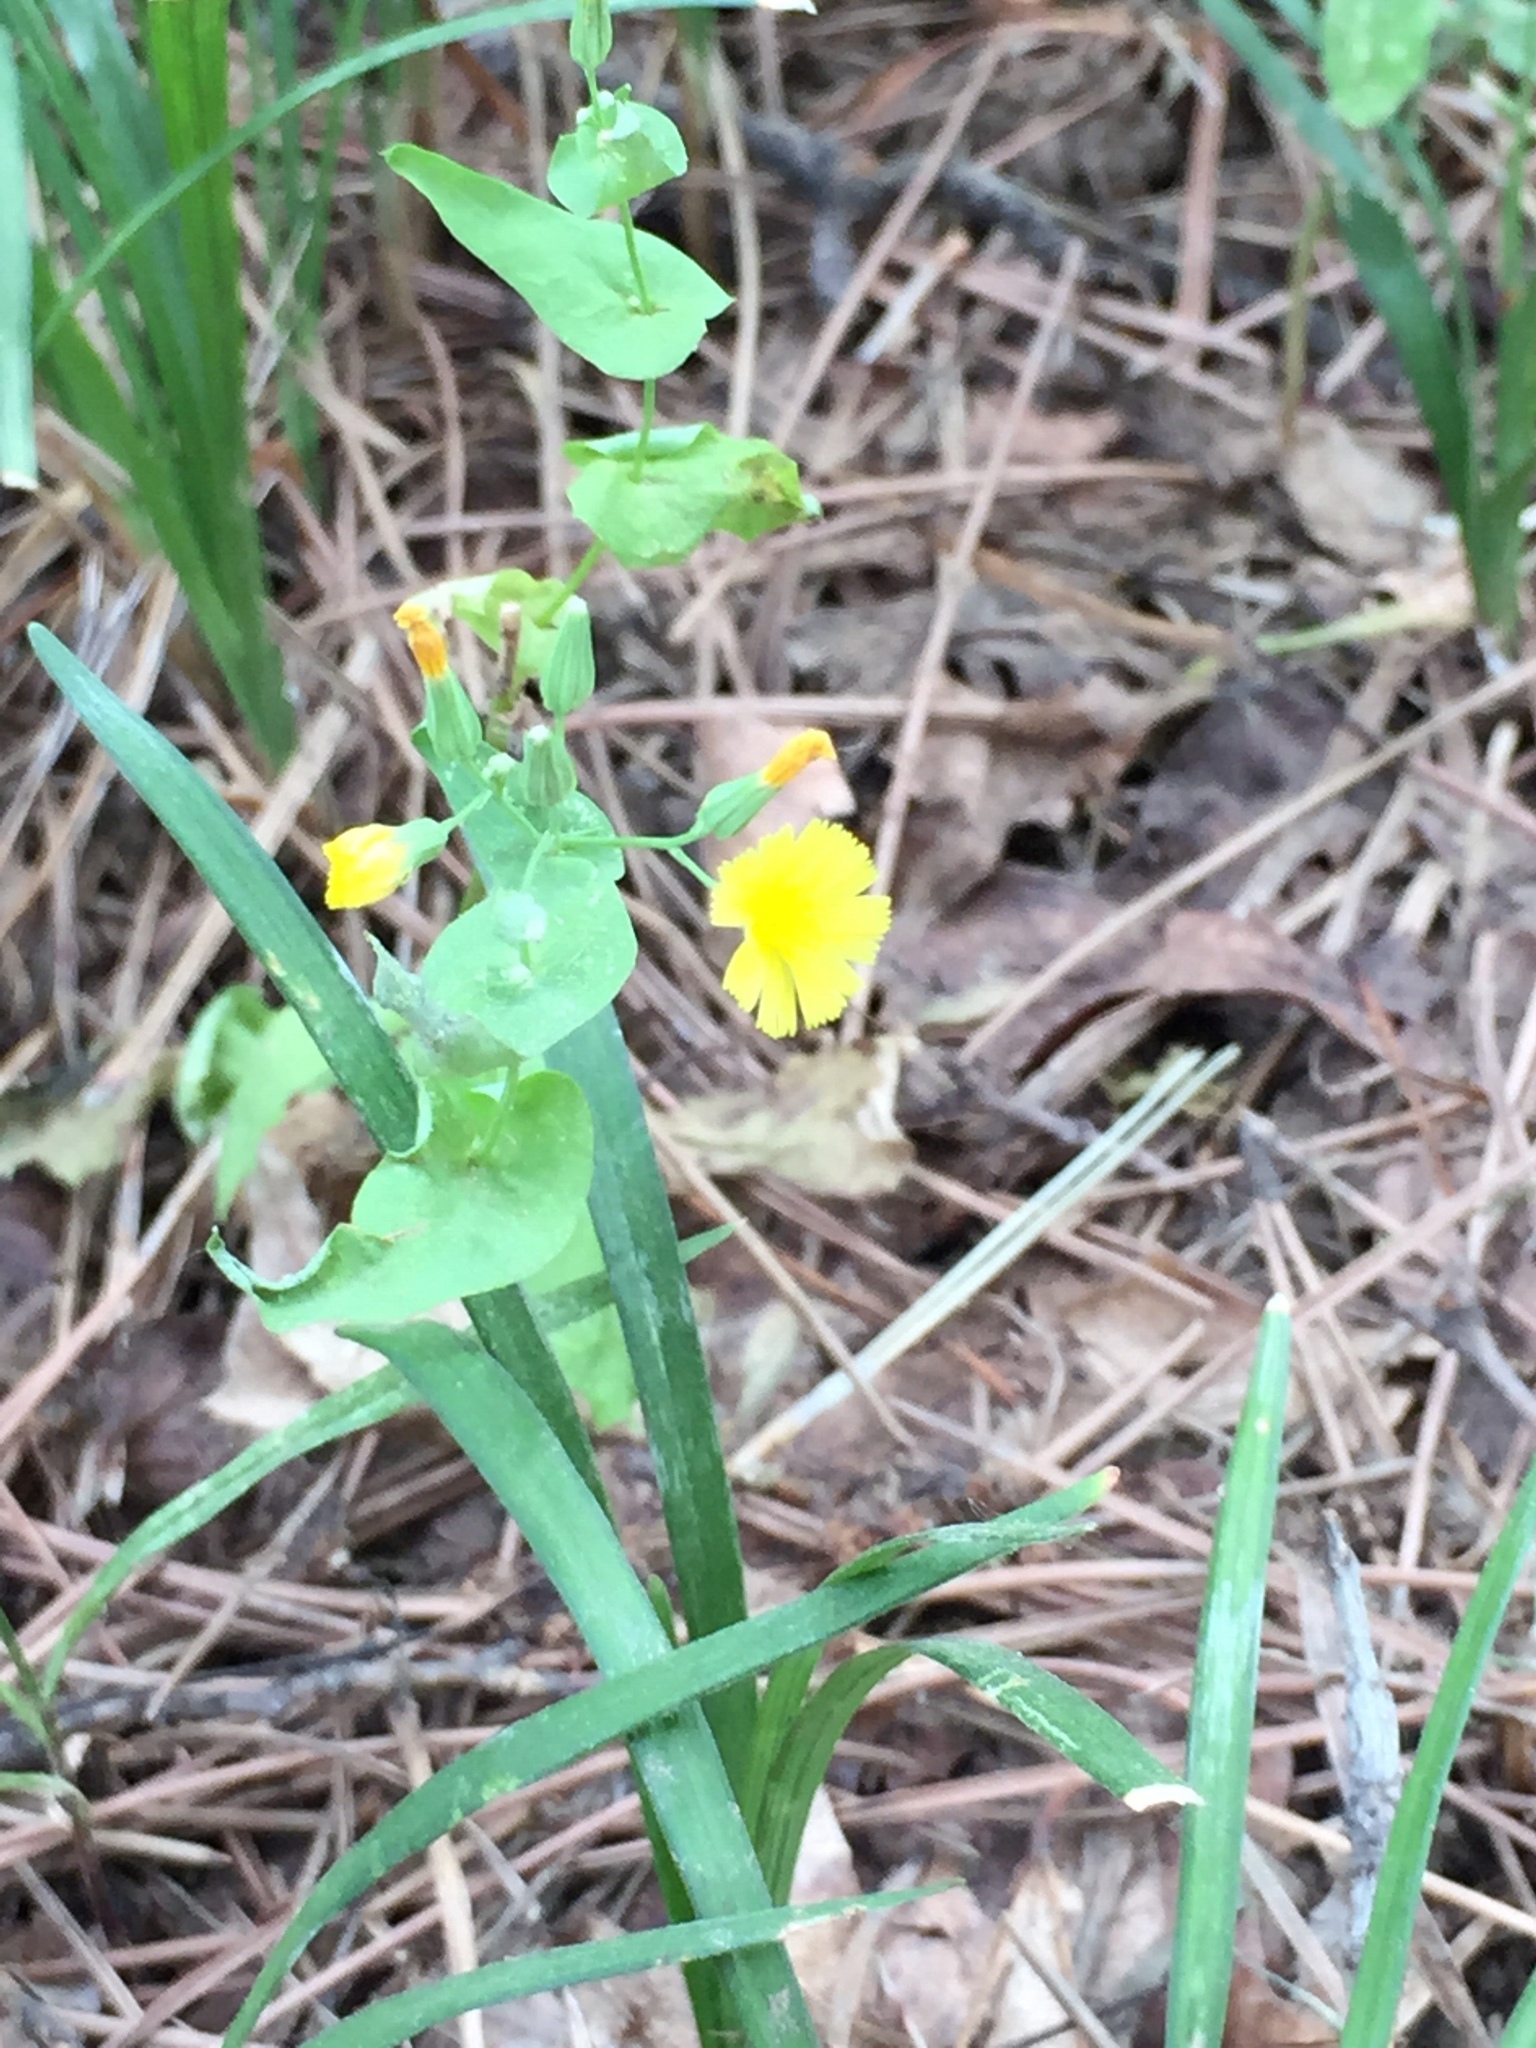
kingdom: Plantae
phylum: Tracheophyta
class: Magnoliopsida
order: Asterales
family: Asteraceae
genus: Crepidiastrum
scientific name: Crepidiastrum sonchifolium
